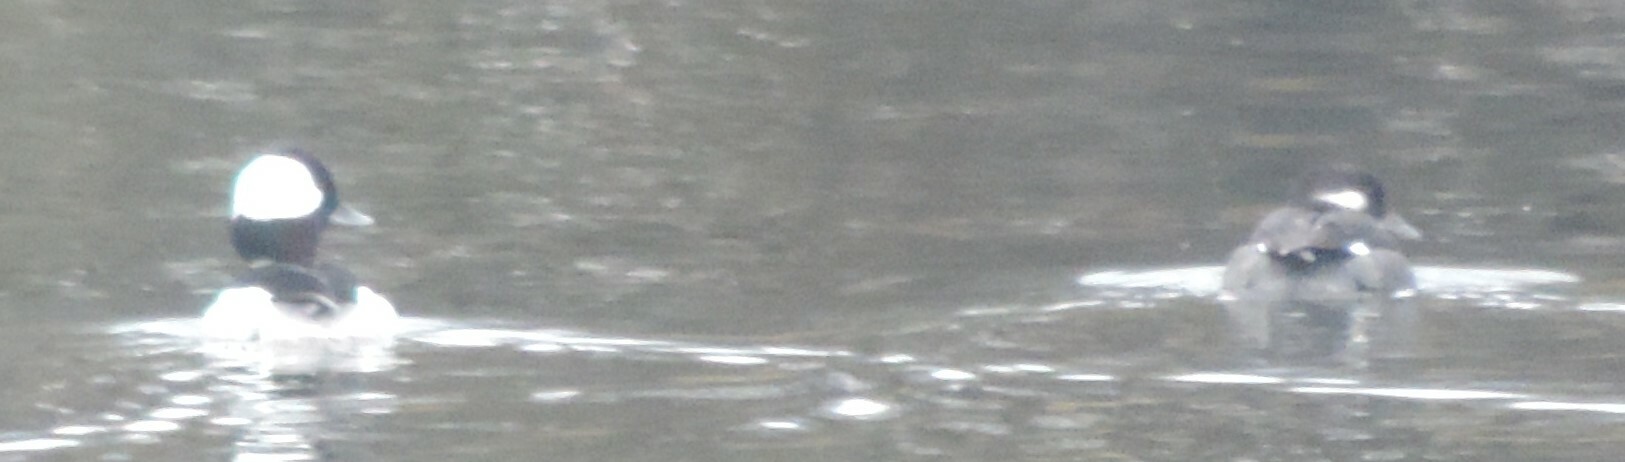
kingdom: Animalia
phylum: Chordata
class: Aves
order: Anseriformes
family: Anatidae
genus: Bucephala
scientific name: Bucephala albeola
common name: Bufflehead
